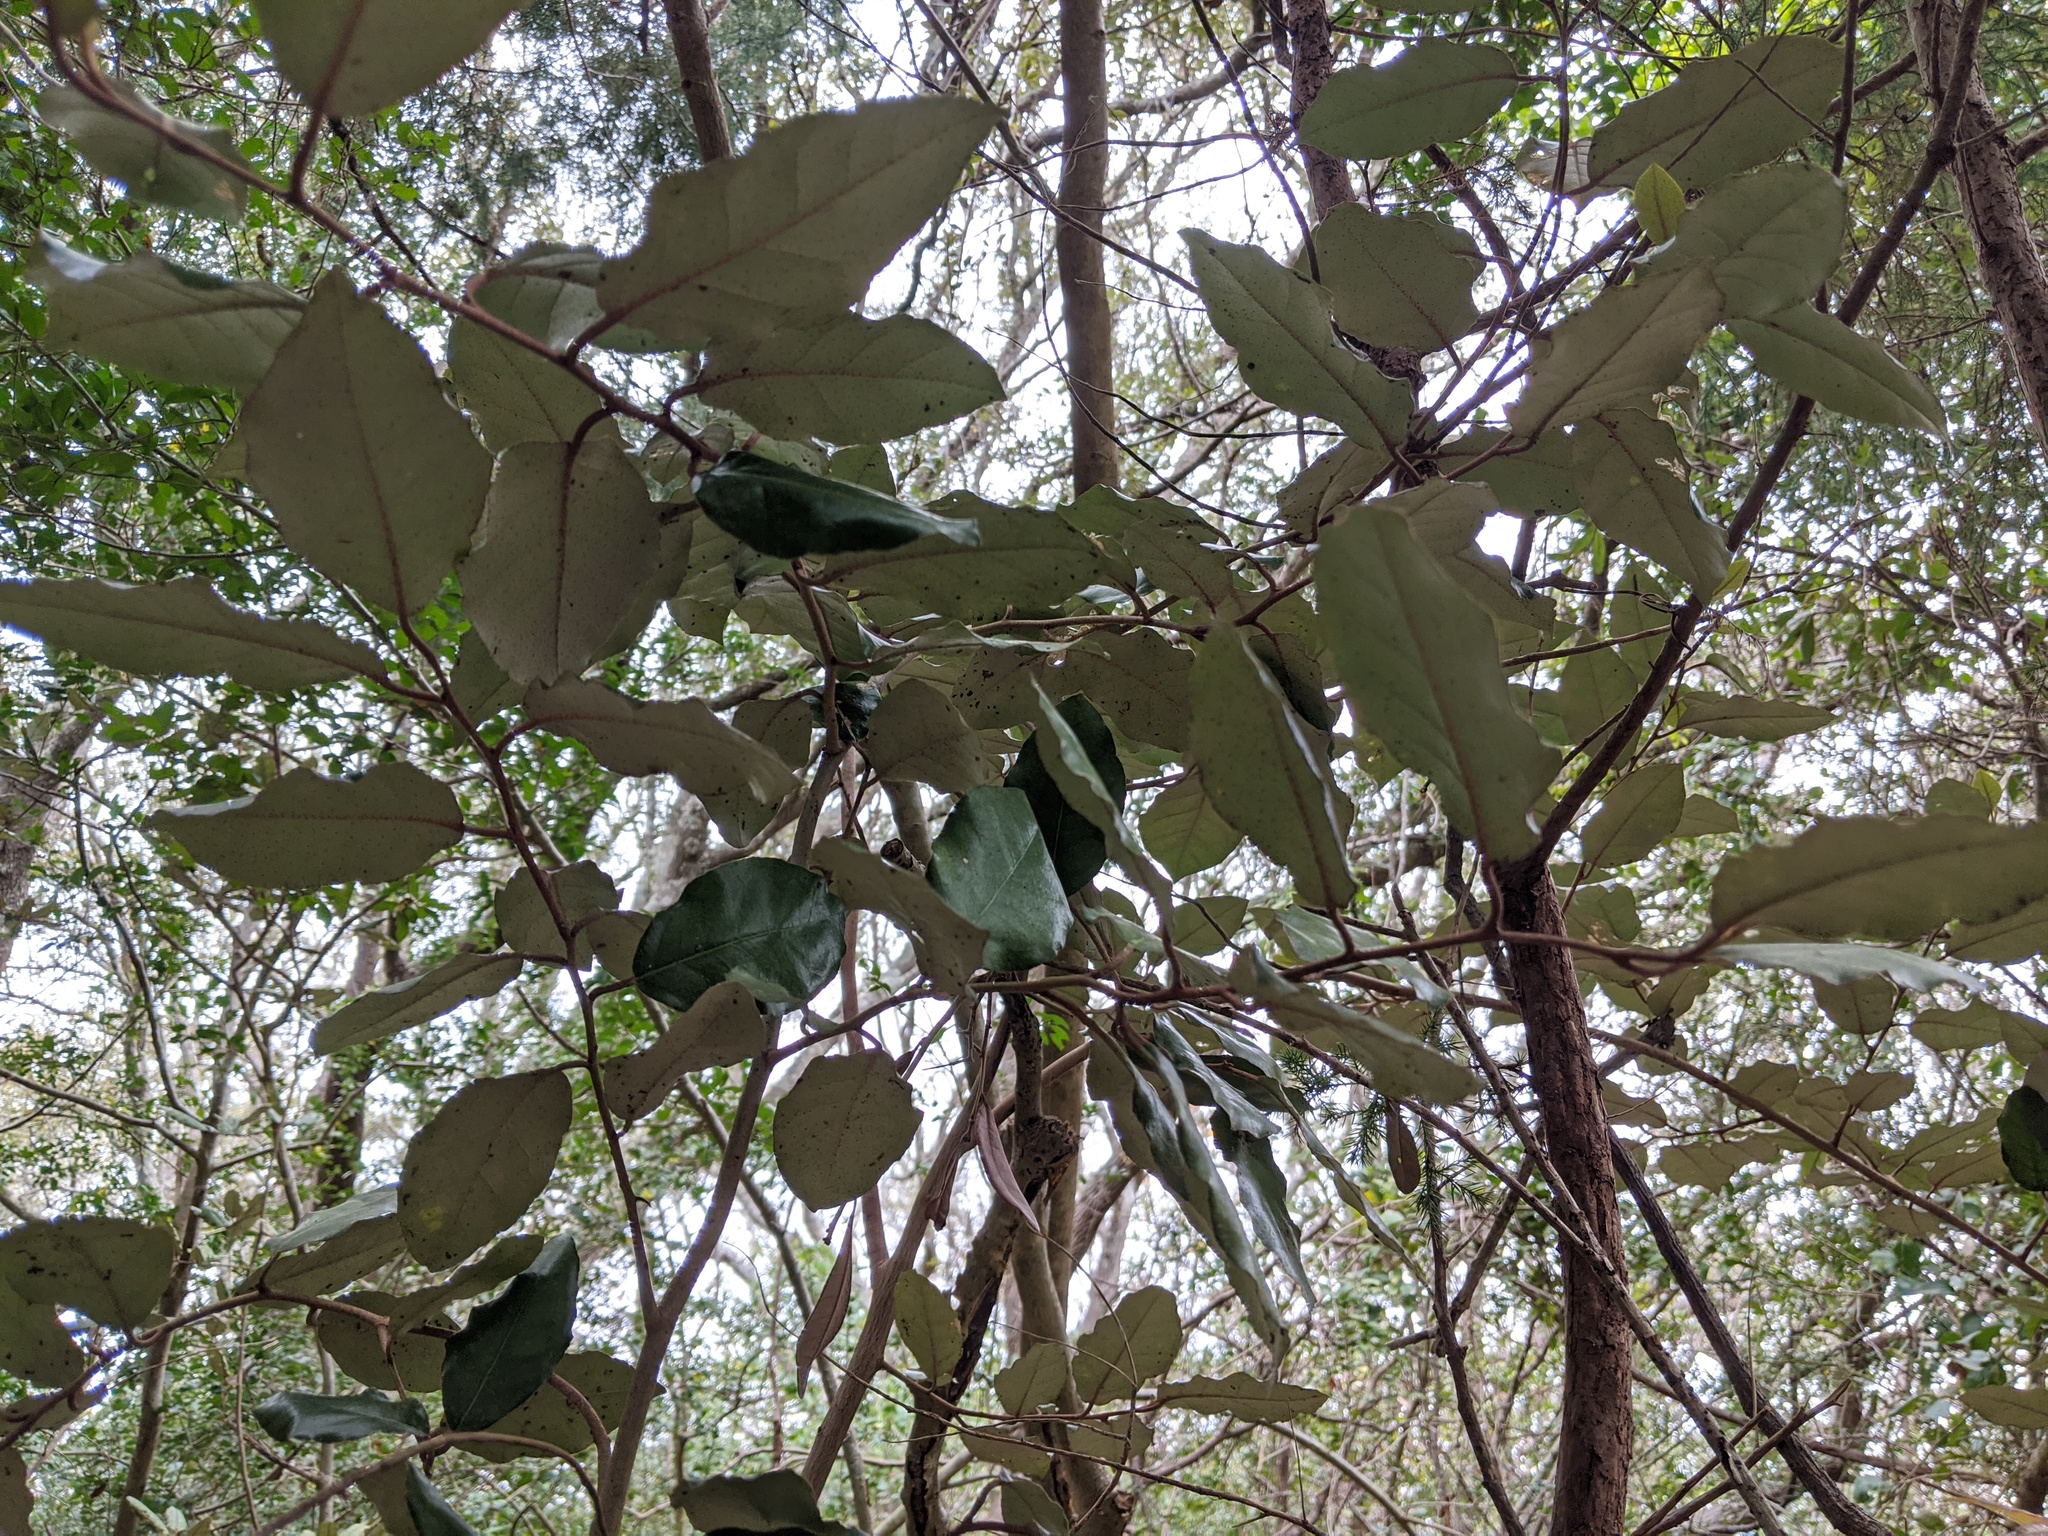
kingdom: Plantae
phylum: Tracheophyta
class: Magnoliopsida
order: Rosales
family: Elaeagnaceae
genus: Elaeagnus
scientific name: Elaeagnus pungens
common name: Spiny oleaster
